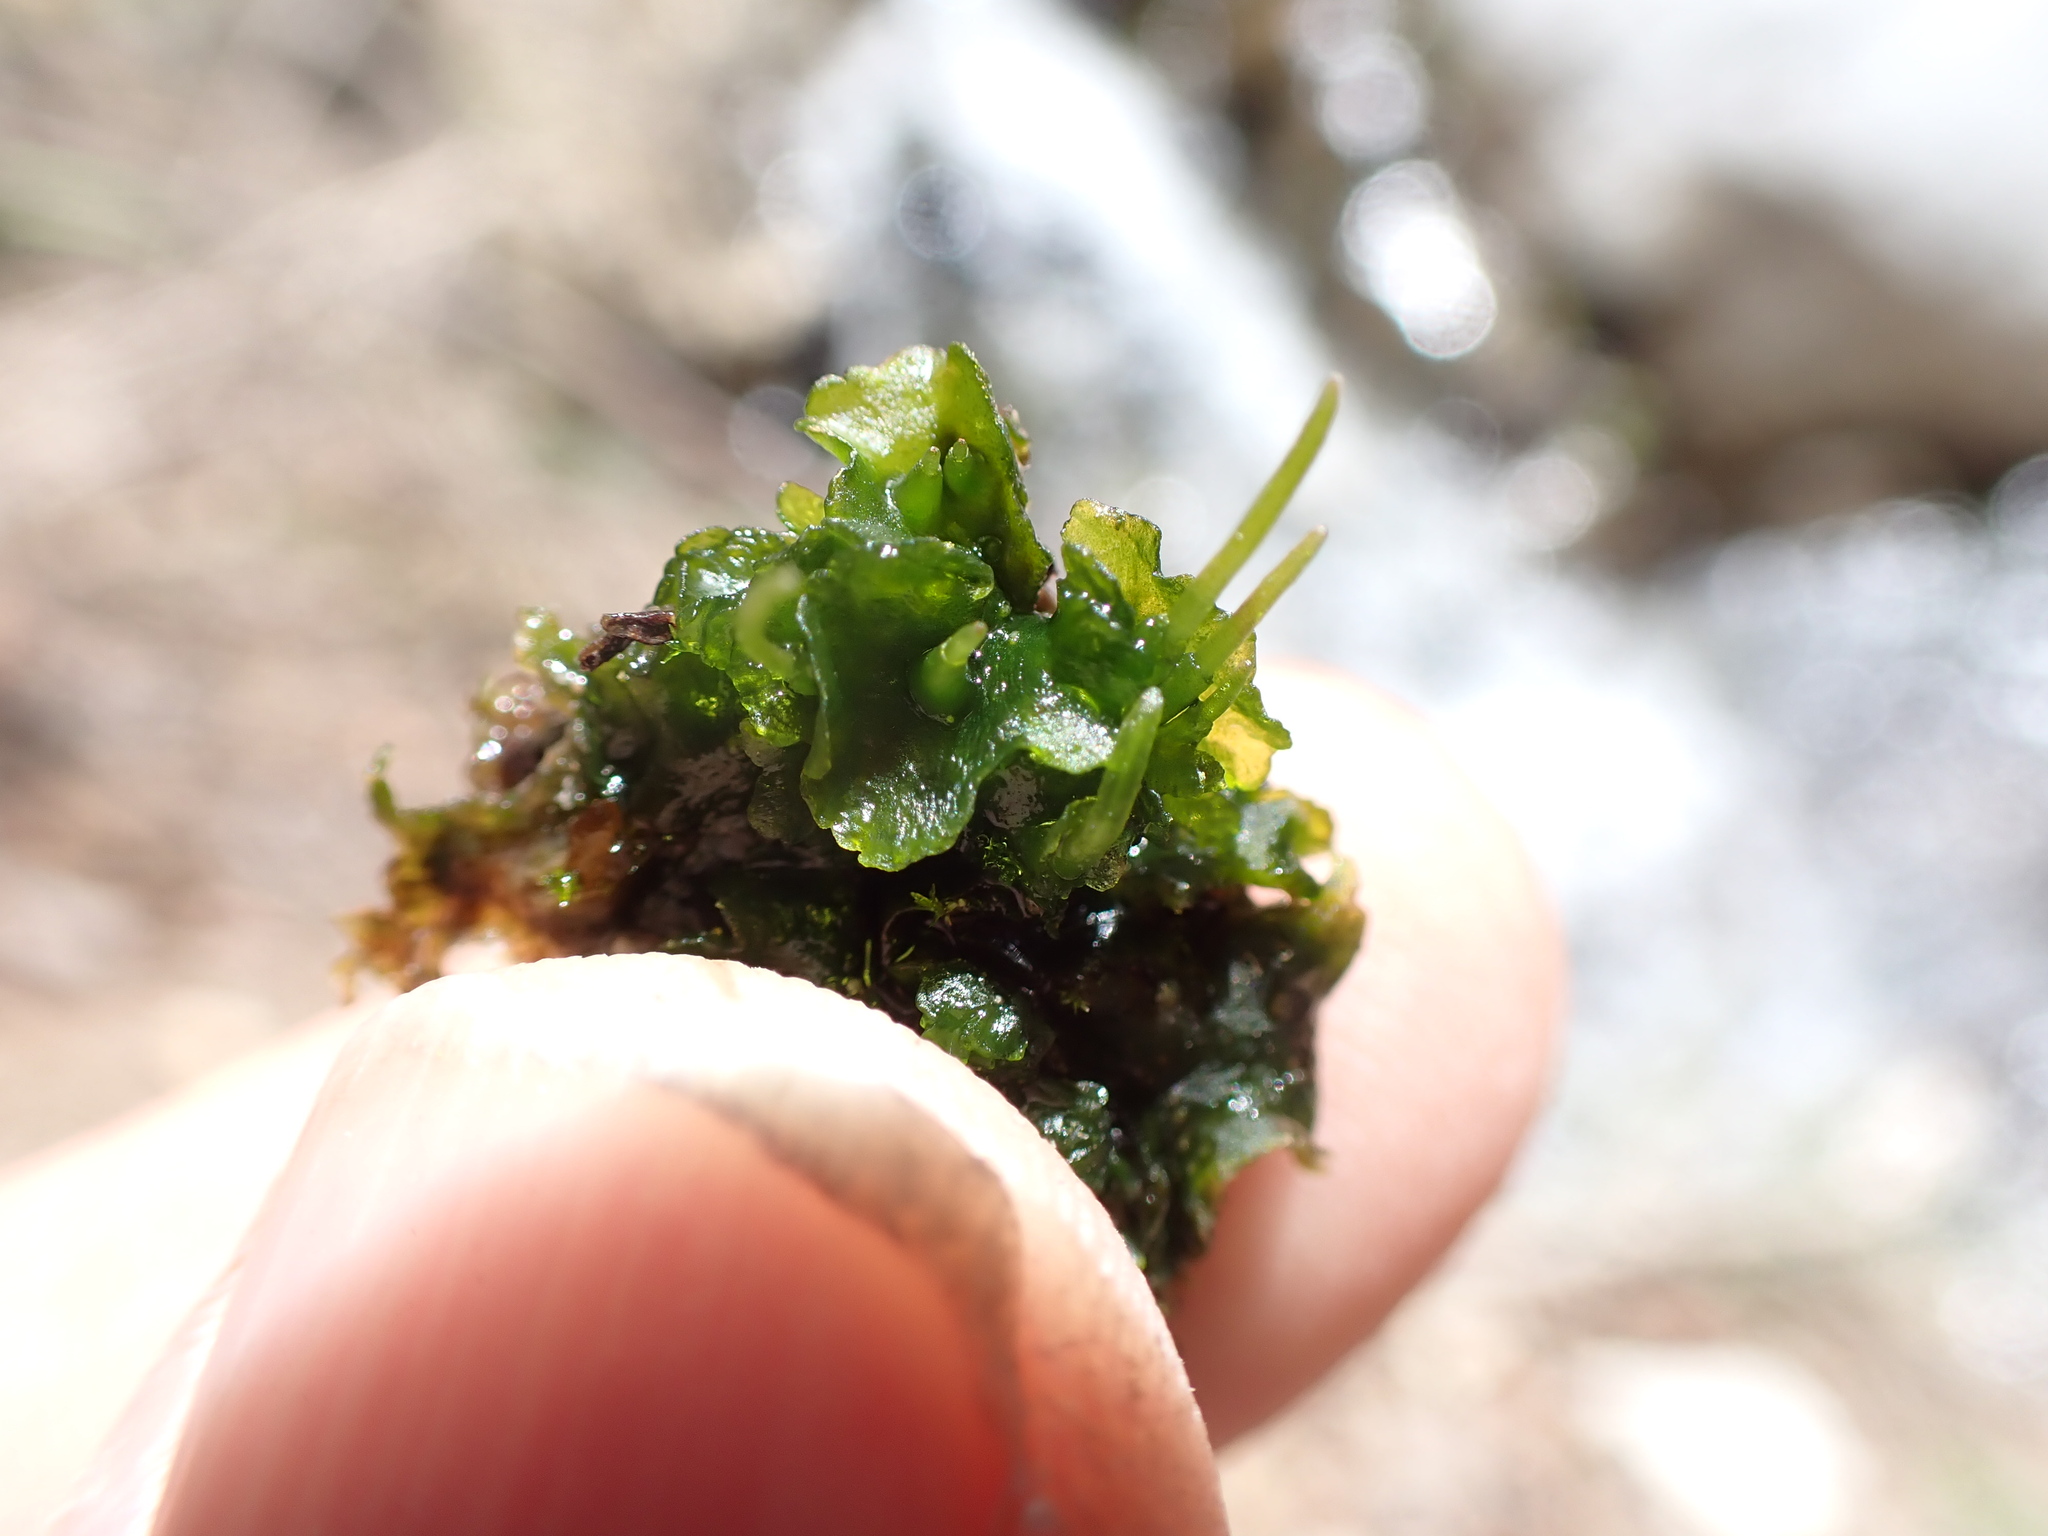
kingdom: Plantae
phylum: Anthocerotophyta
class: Anthocerotopsida
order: Notothyladales
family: Notothyladaceae
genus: Phaeoceros
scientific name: Phaeoceros carolinianus
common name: Carolina hornwort
